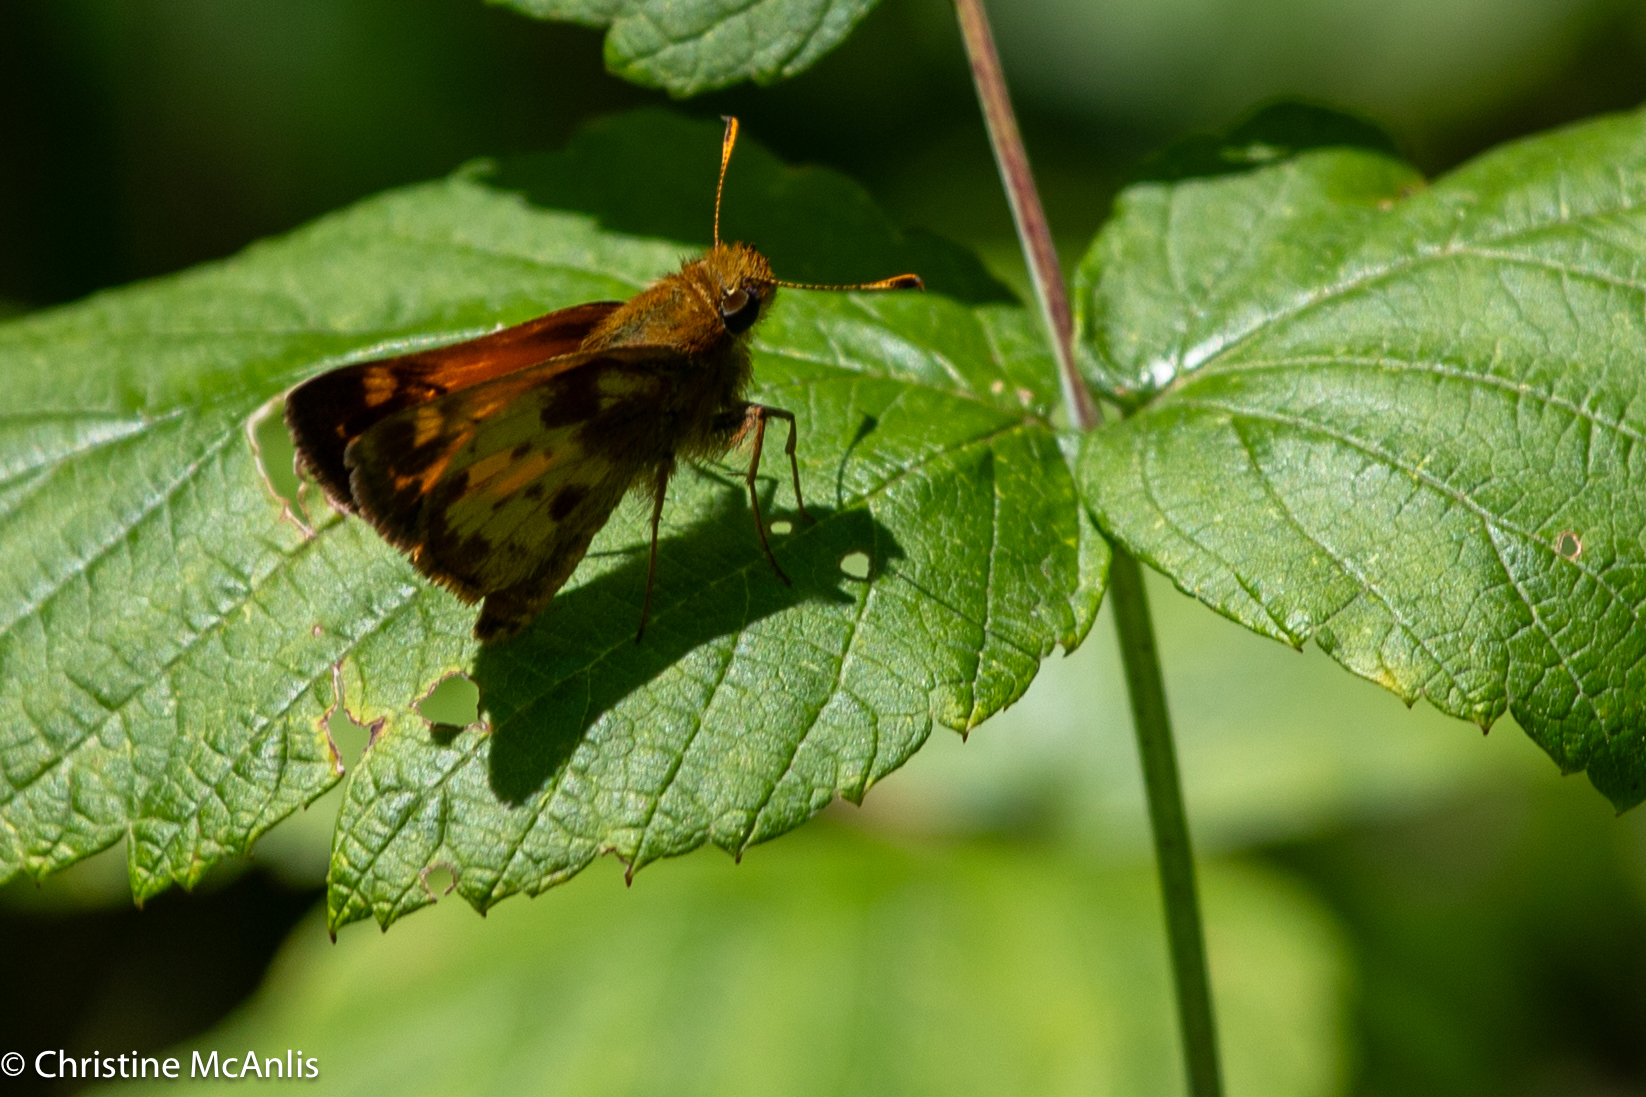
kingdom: Animalia
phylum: Arthropoda
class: Insecta
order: Lepidoptera
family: Hesperiidae
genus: Lon
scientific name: Lon zabulon
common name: Zabulon skipper
